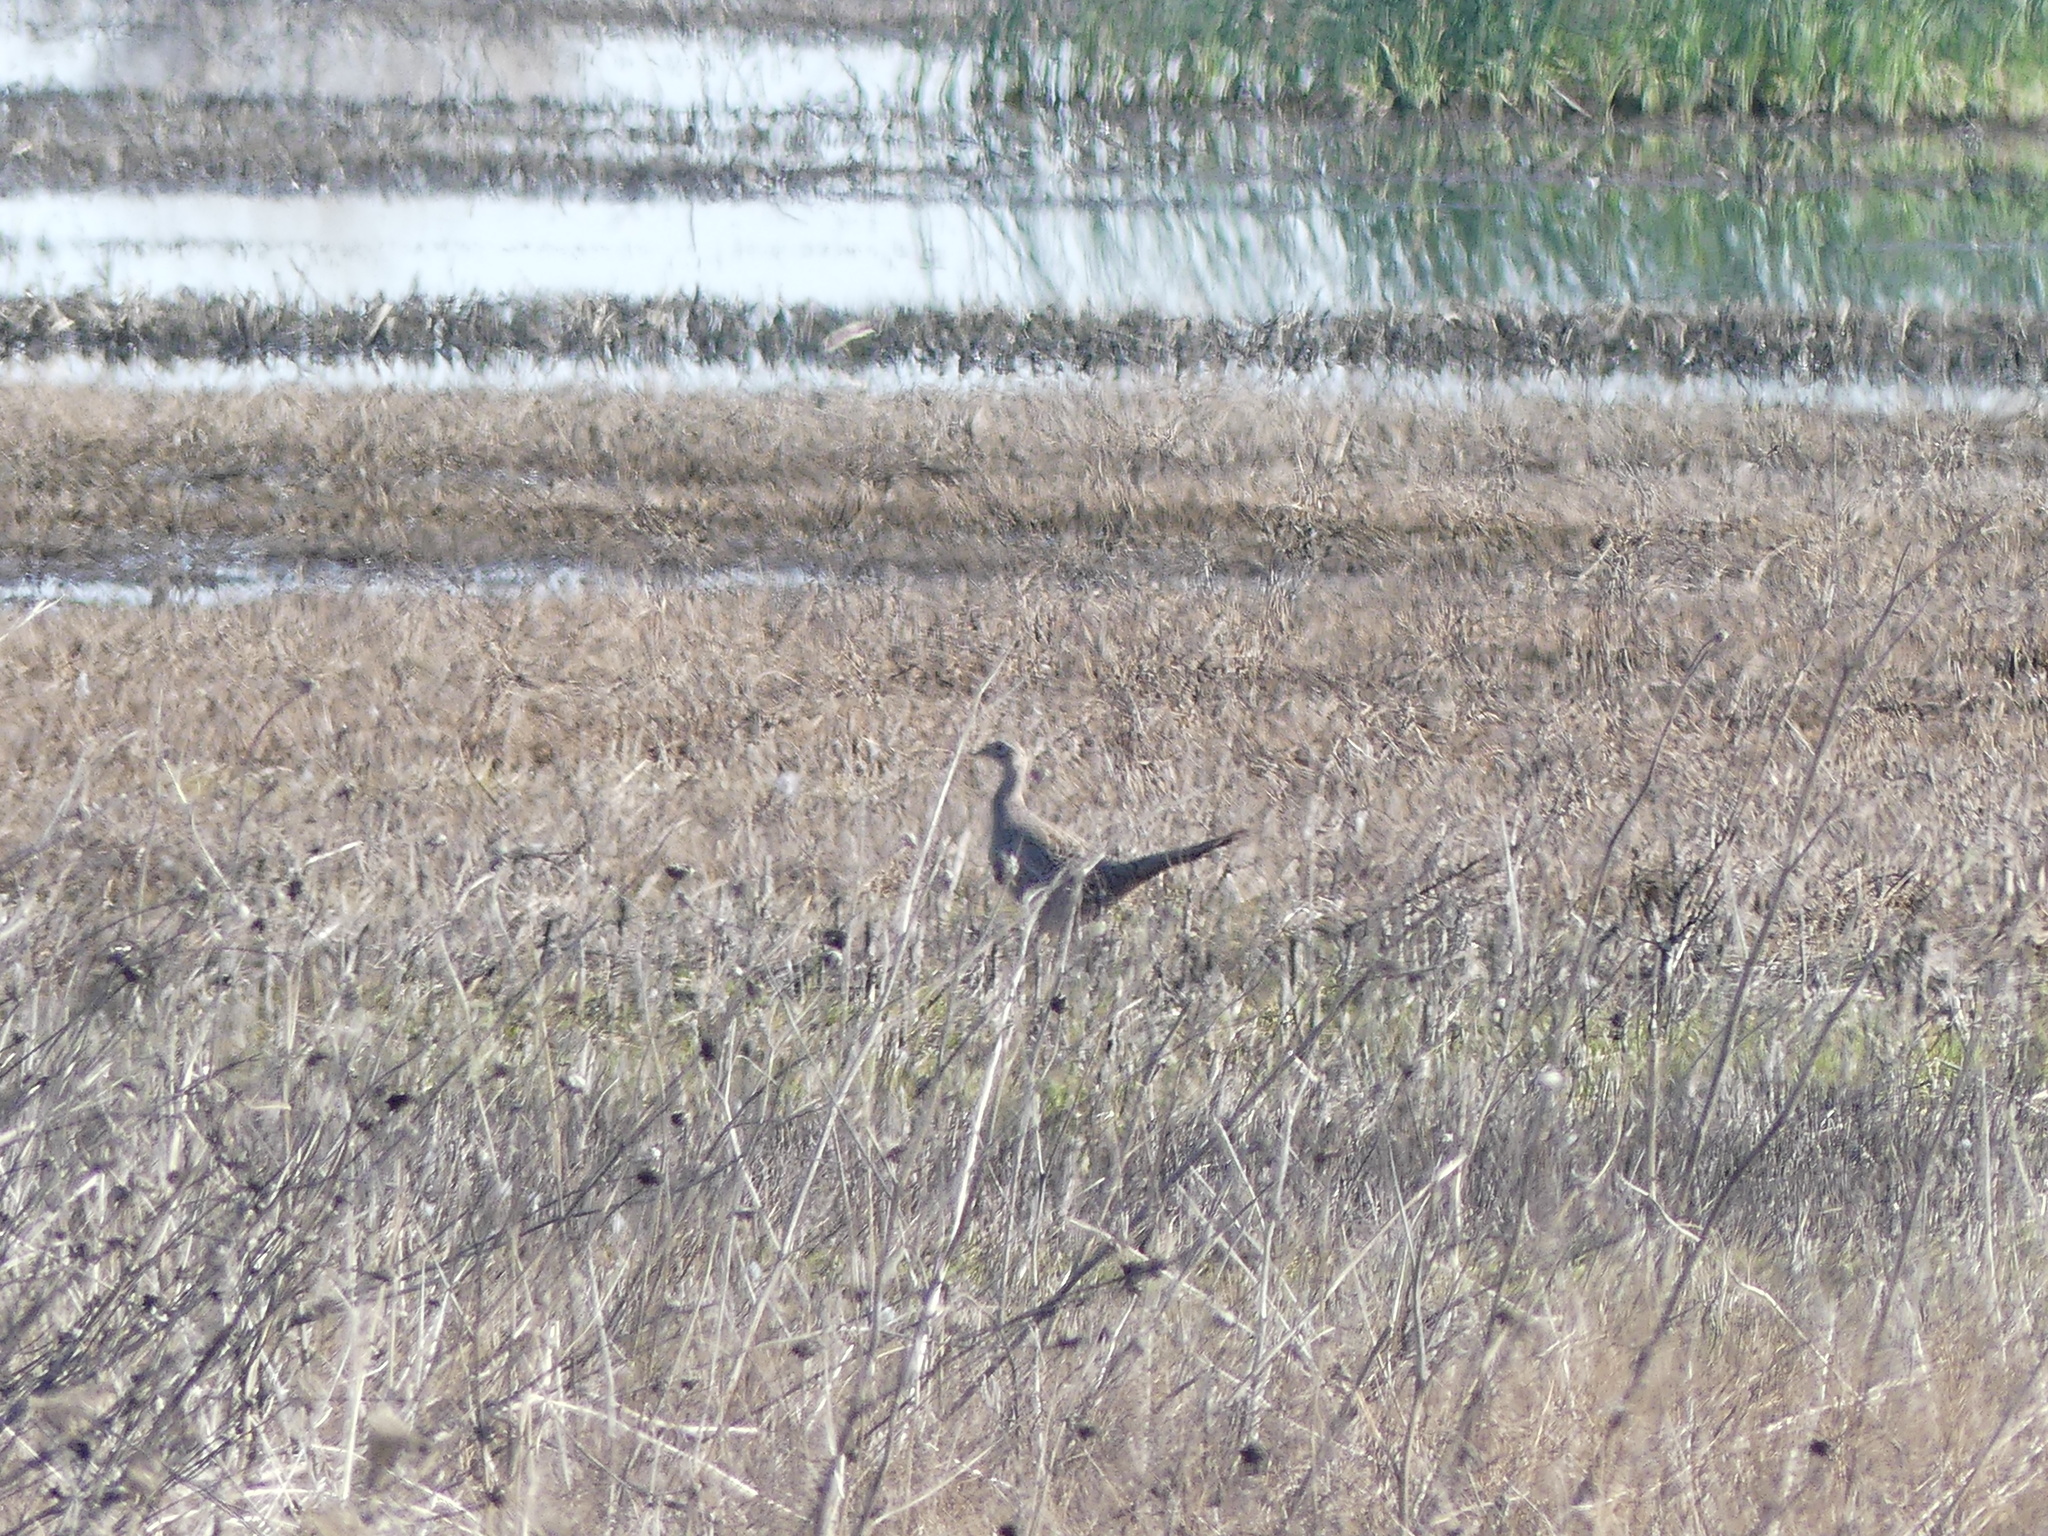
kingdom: Animalia
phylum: Chordata
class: Aves
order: Galliformes
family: Phasianidae
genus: Phasianus
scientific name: Phasianus colchicus
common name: Common pheasant
